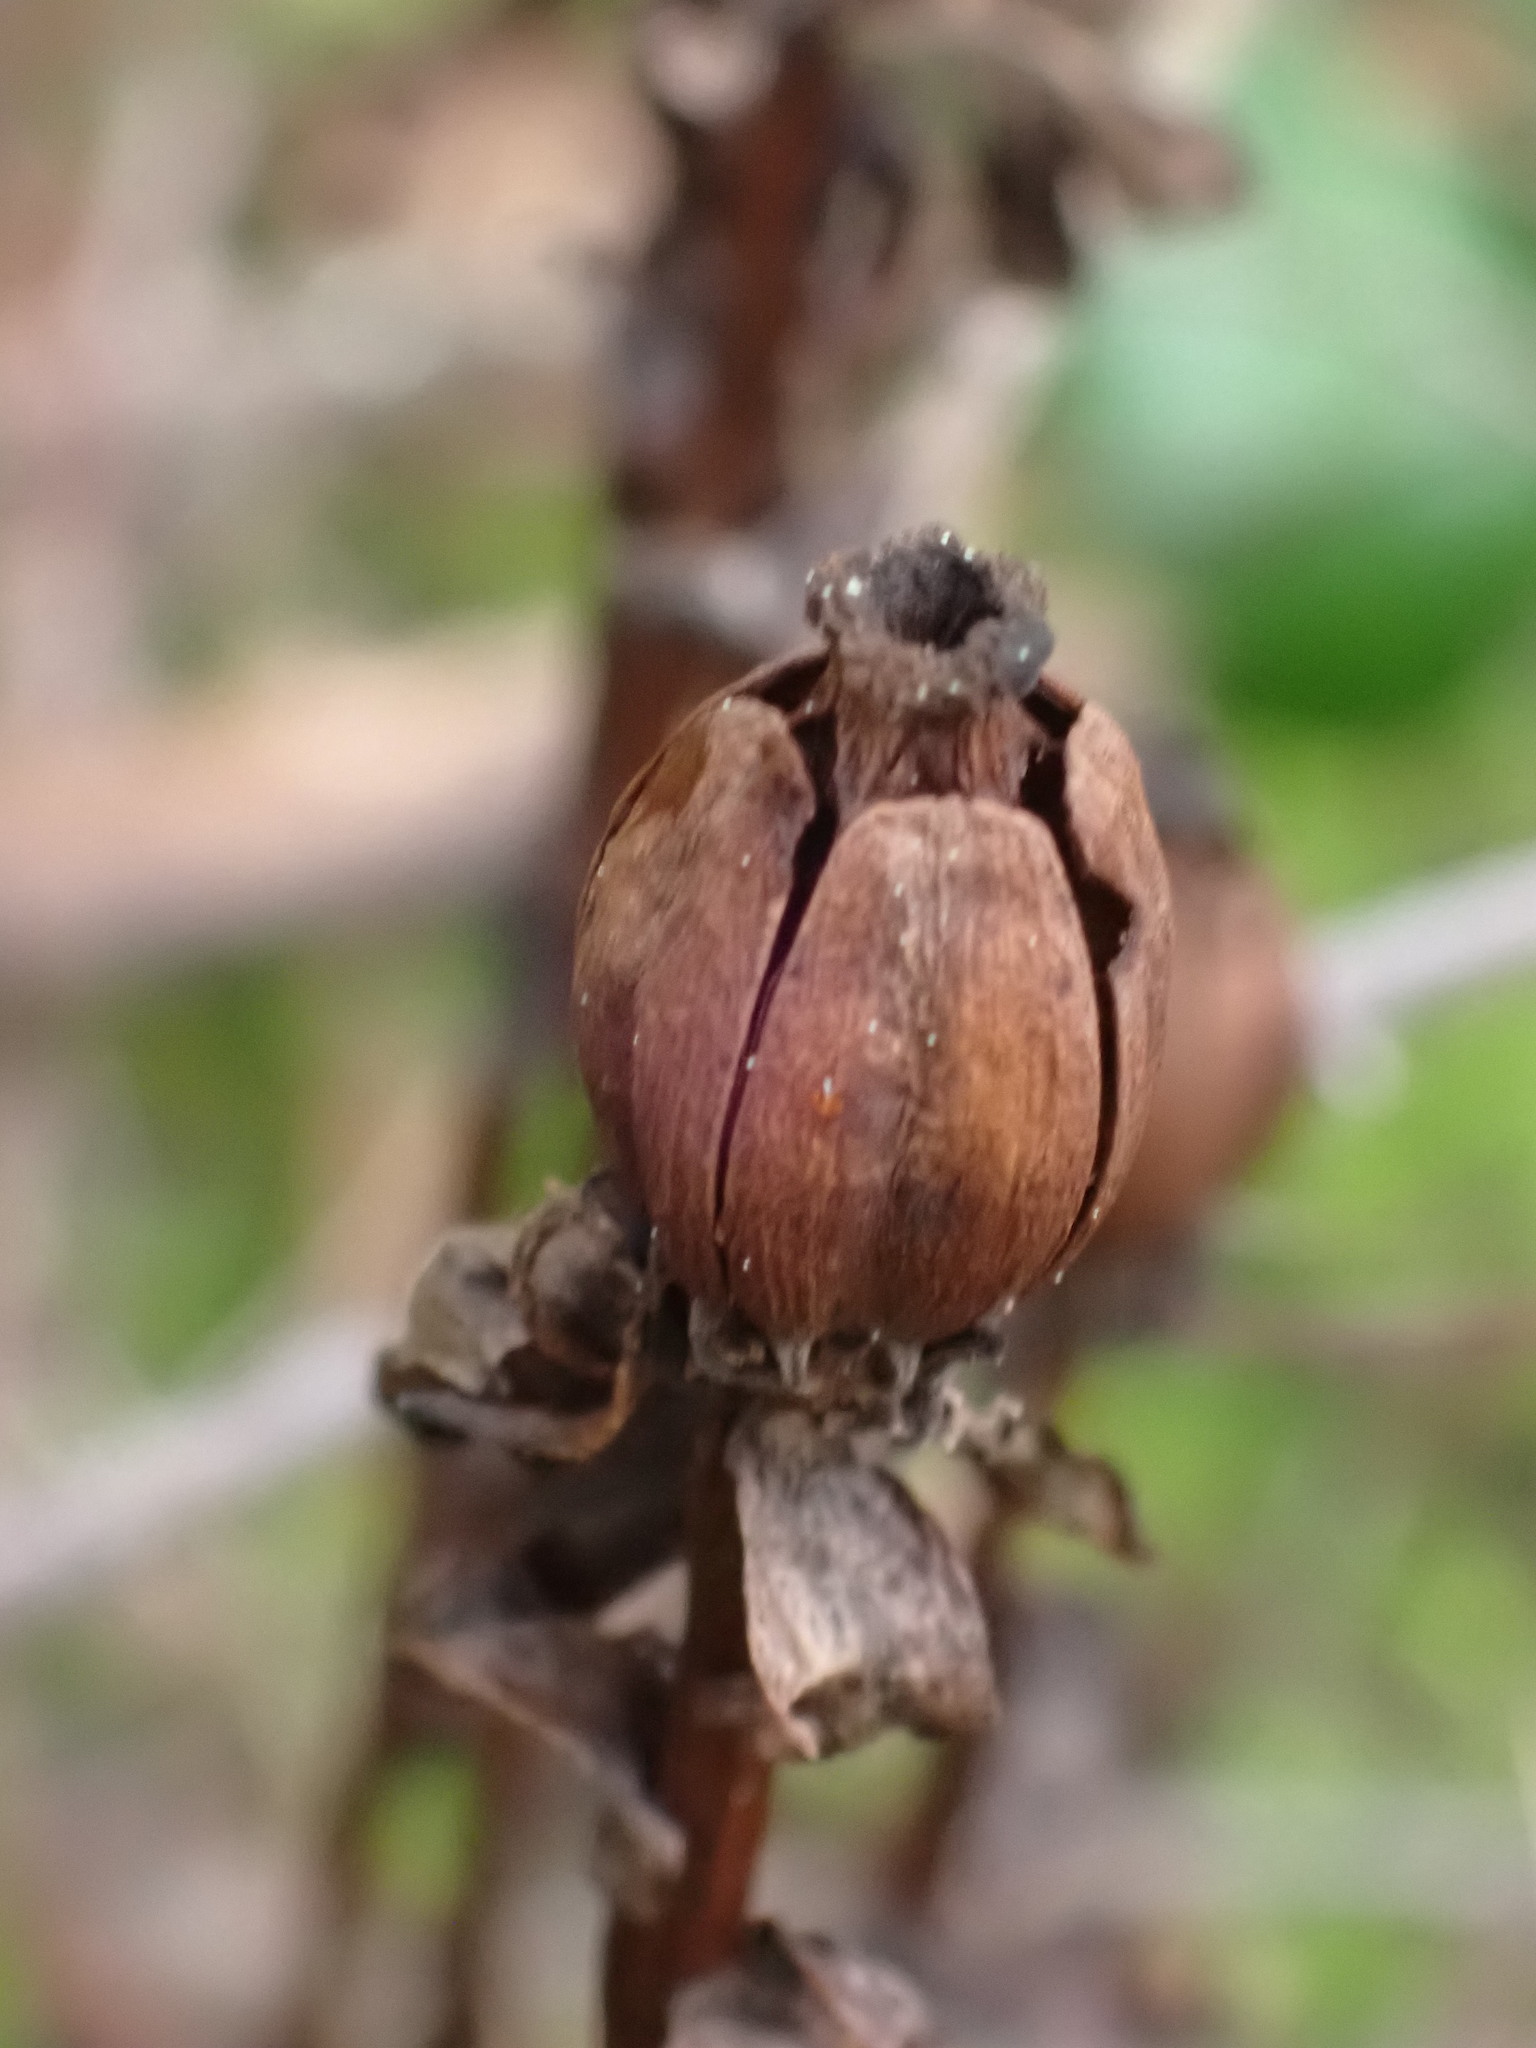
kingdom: Plantae
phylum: Tracheophyta
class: Magnoliopsida
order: Ericales
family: Ericaceae
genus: Monotropa
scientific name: Monotropa uniflora
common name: Convulsion root
